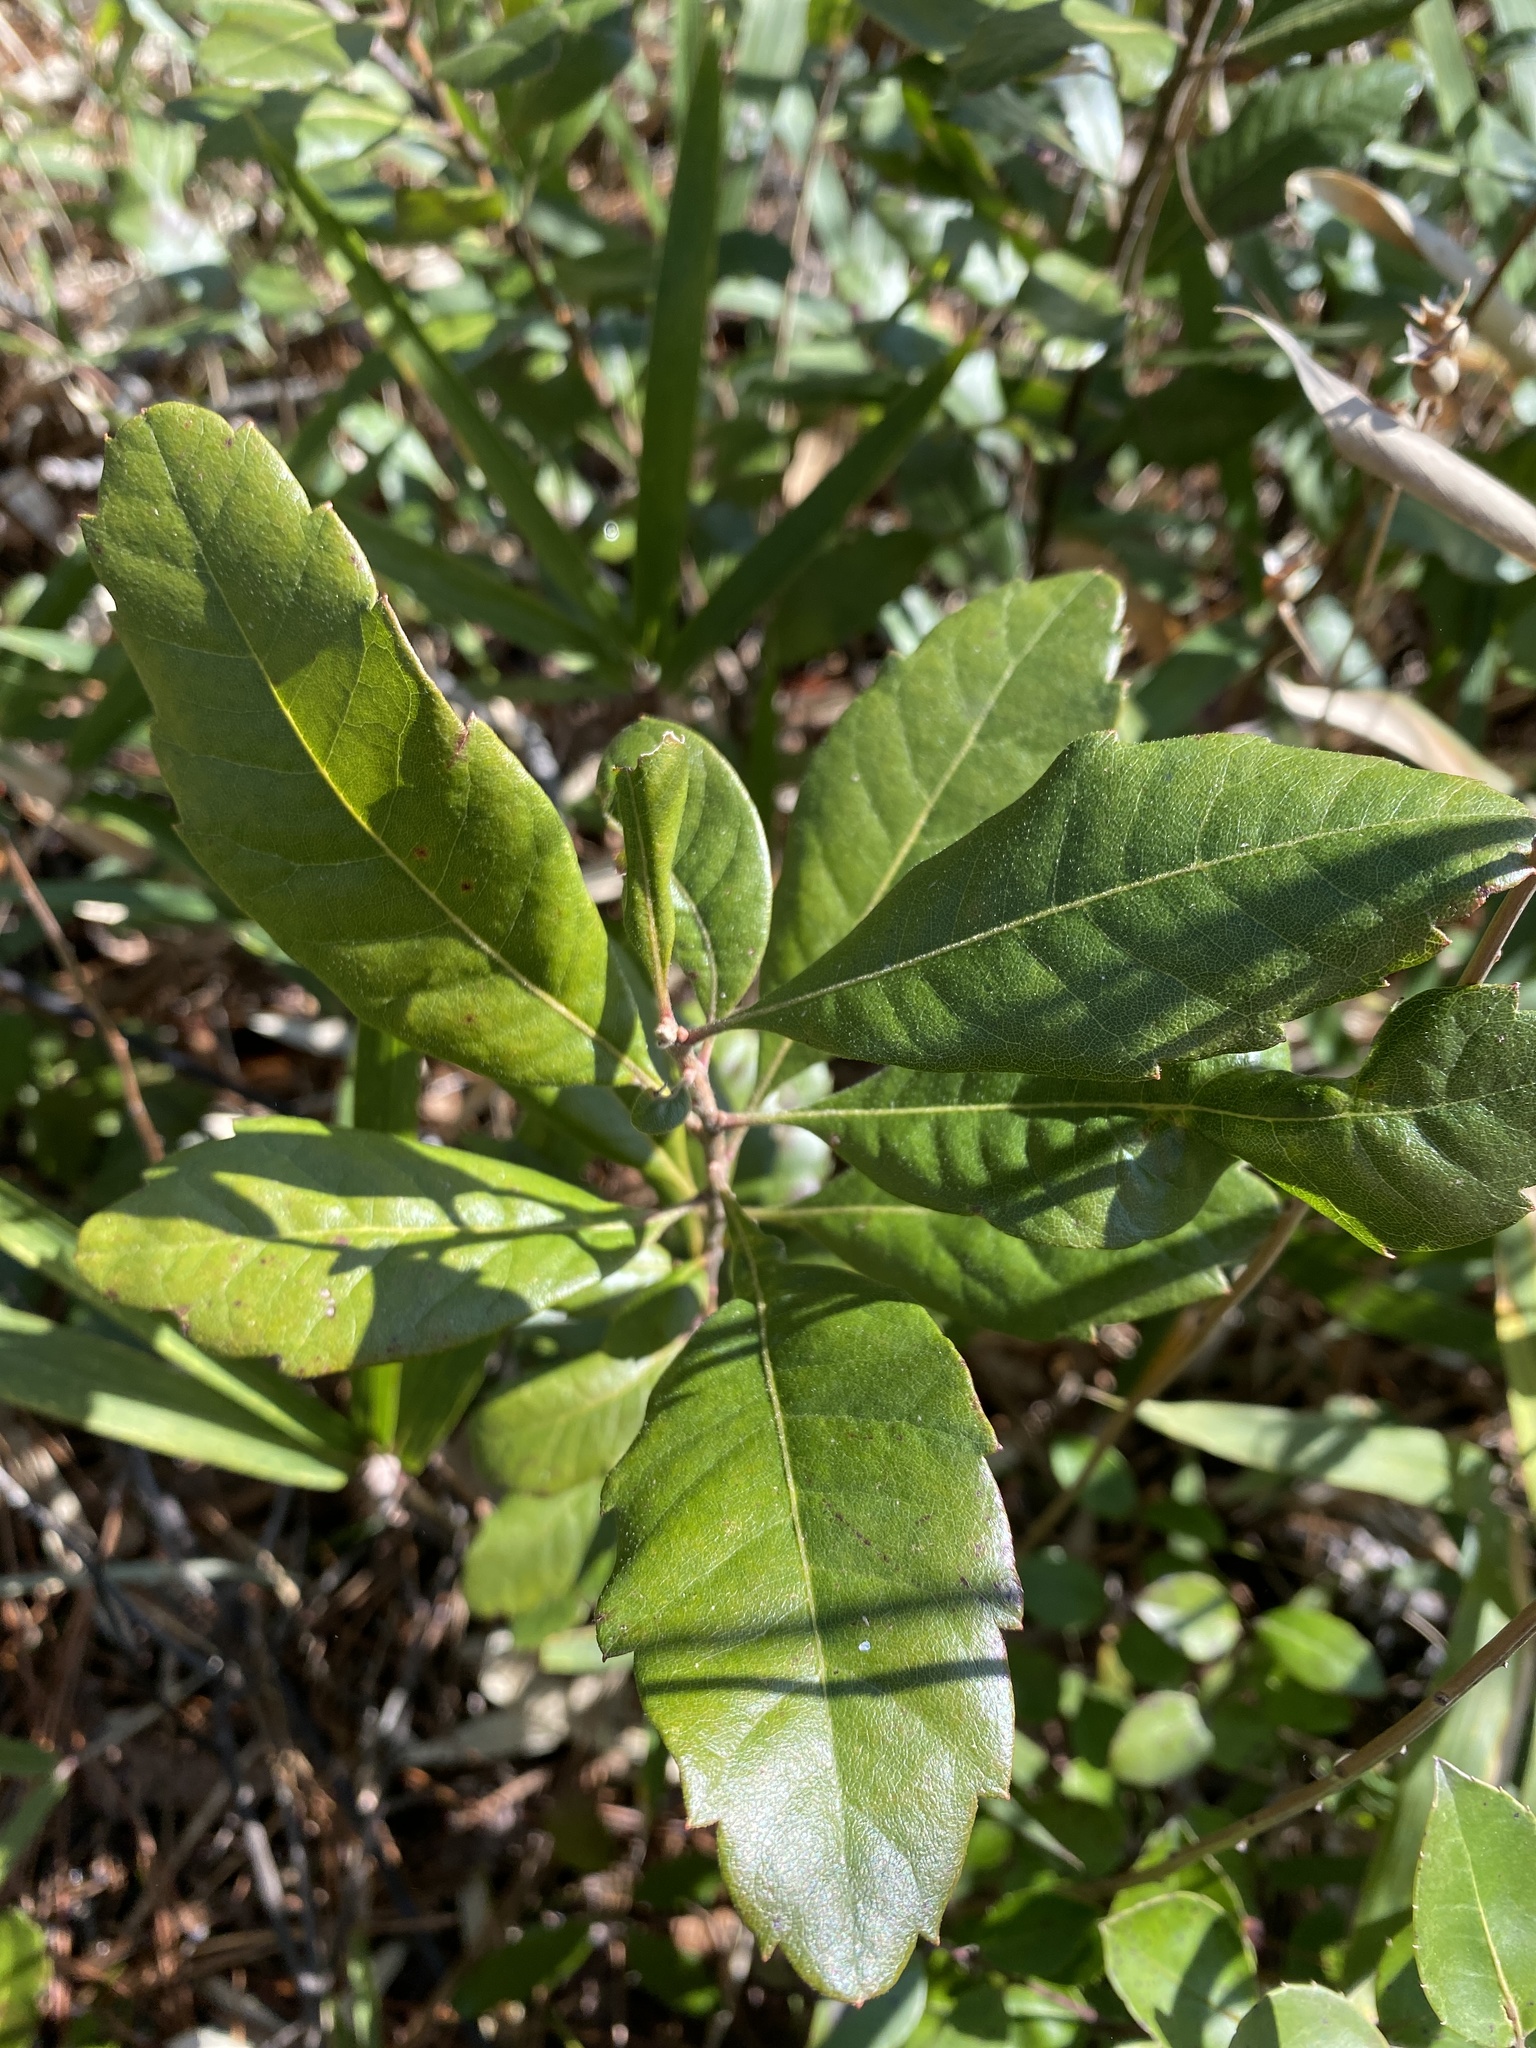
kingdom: Plantae
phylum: Tracheophyta
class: Magnoliopsida
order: Fagales
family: Myricaceae
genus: Morella
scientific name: Morella caroliniensis
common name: Evergreen bayberry
